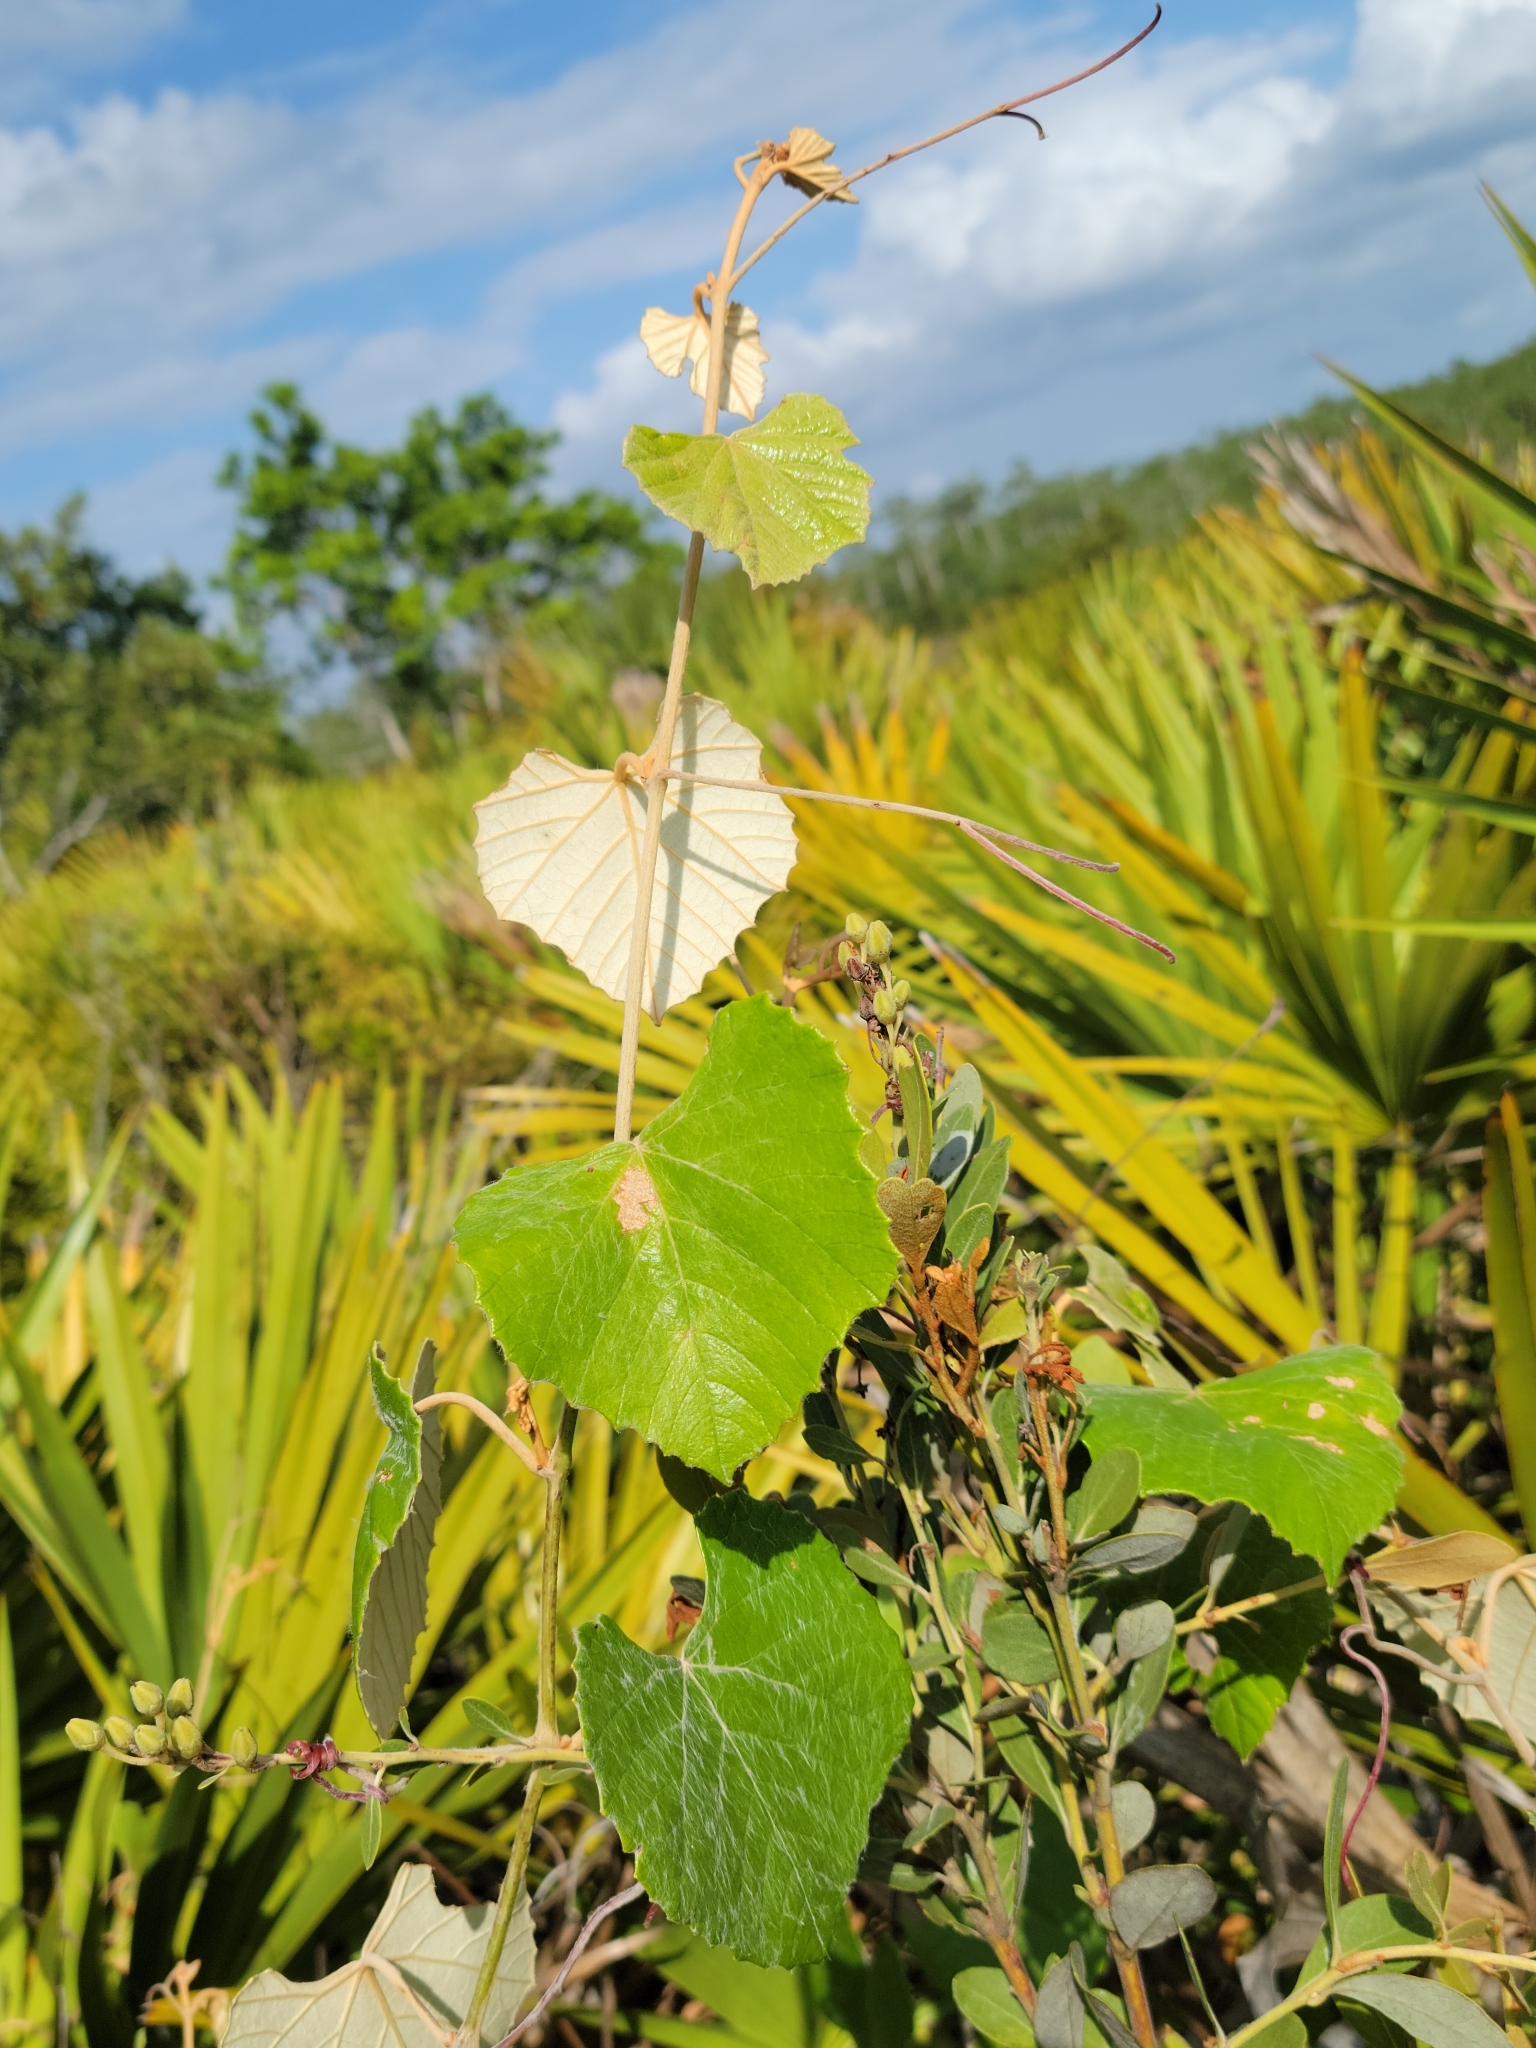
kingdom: Plantae
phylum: Tracheophyta
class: Magnoliopsida
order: Vitales
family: Vitaceae
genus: Vitis
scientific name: Vitis shuttleworthii
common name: Caloosa grape
